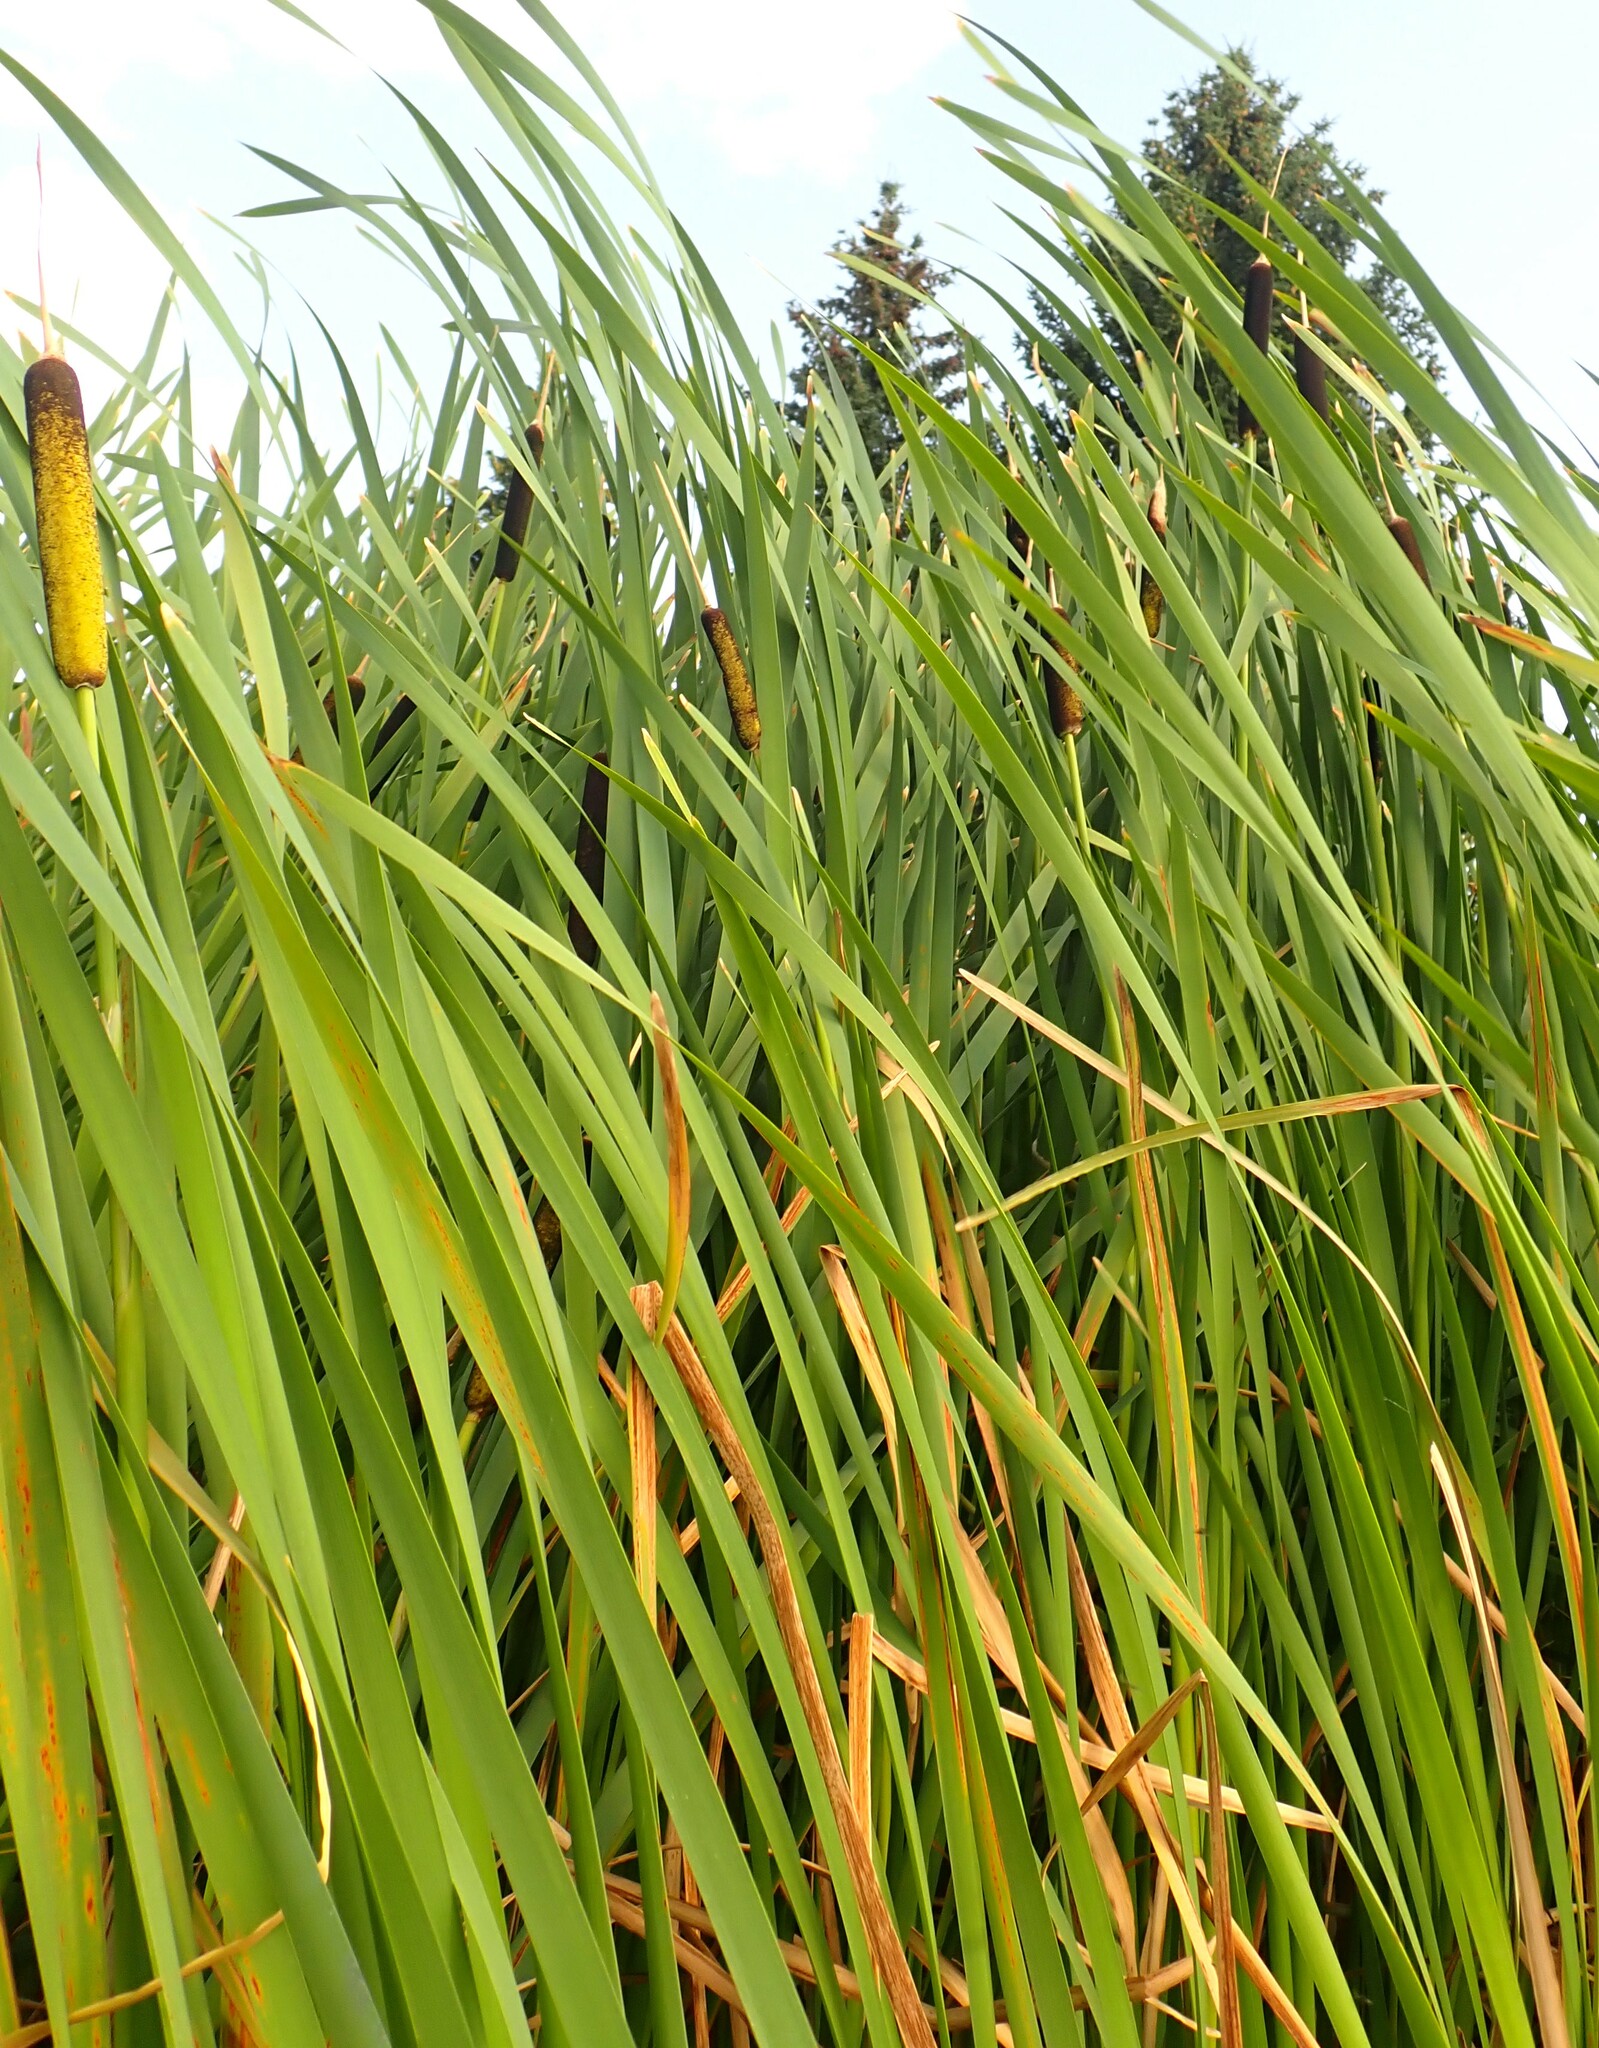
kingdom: Plantae
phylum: Tracheophyta
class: Liliopsida
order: Poales
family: Typhaceae
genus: Typha
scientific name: Typha latifolia
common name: Broadleaf cattail
